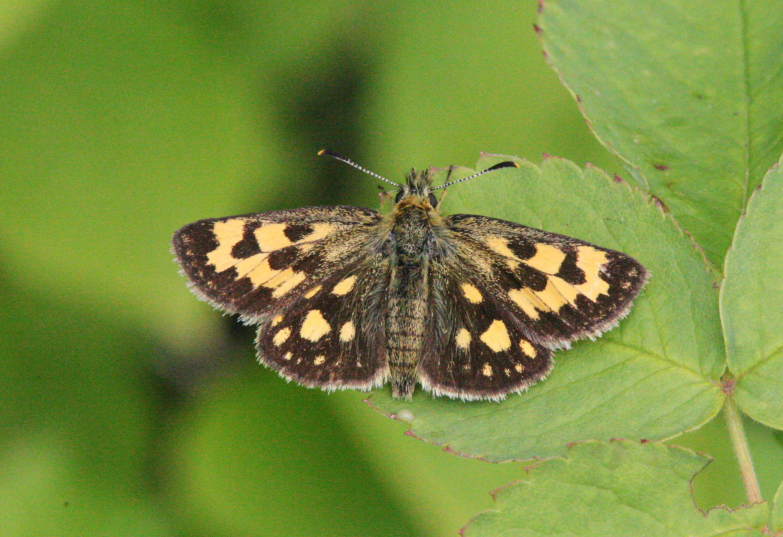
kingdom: Animalia
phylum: Arthropoda
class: Insecta
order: Lepidoptera
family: Hesperiidae
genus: Carterocephalus
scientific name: Carterocephalus silvicola
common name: Northern chequered skipper
